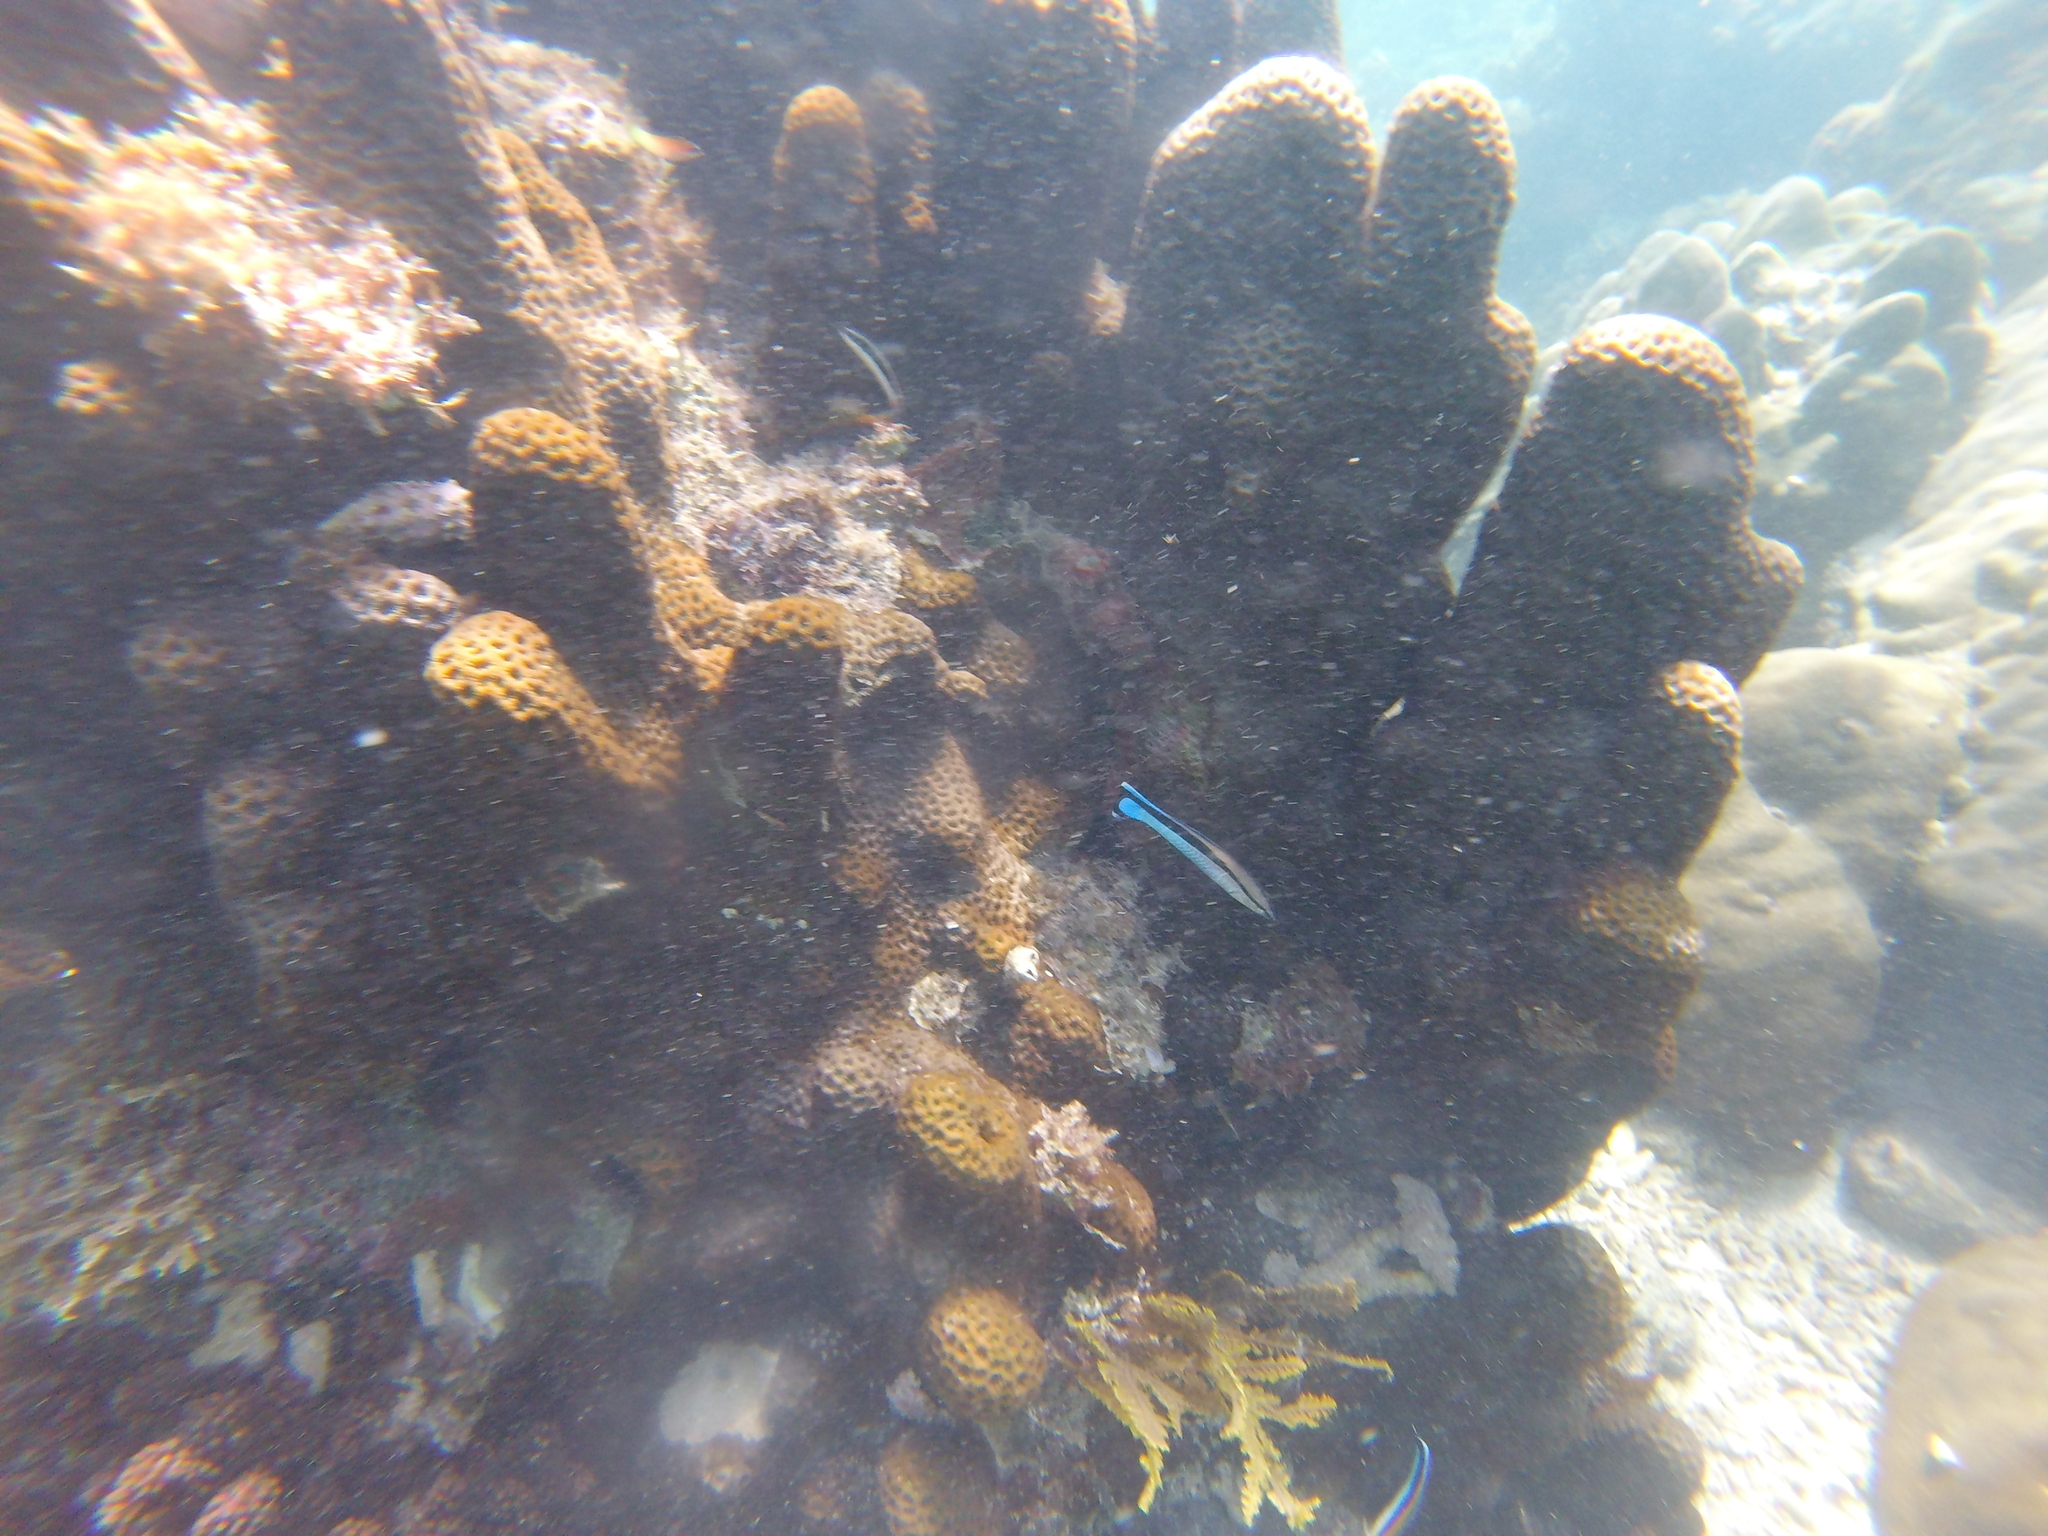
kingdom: Animalia
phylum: Chordata
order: Perciformes
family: Labridae
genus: Labroides
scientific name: Labroides dimidiatus
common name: Blue diesel wrasse
